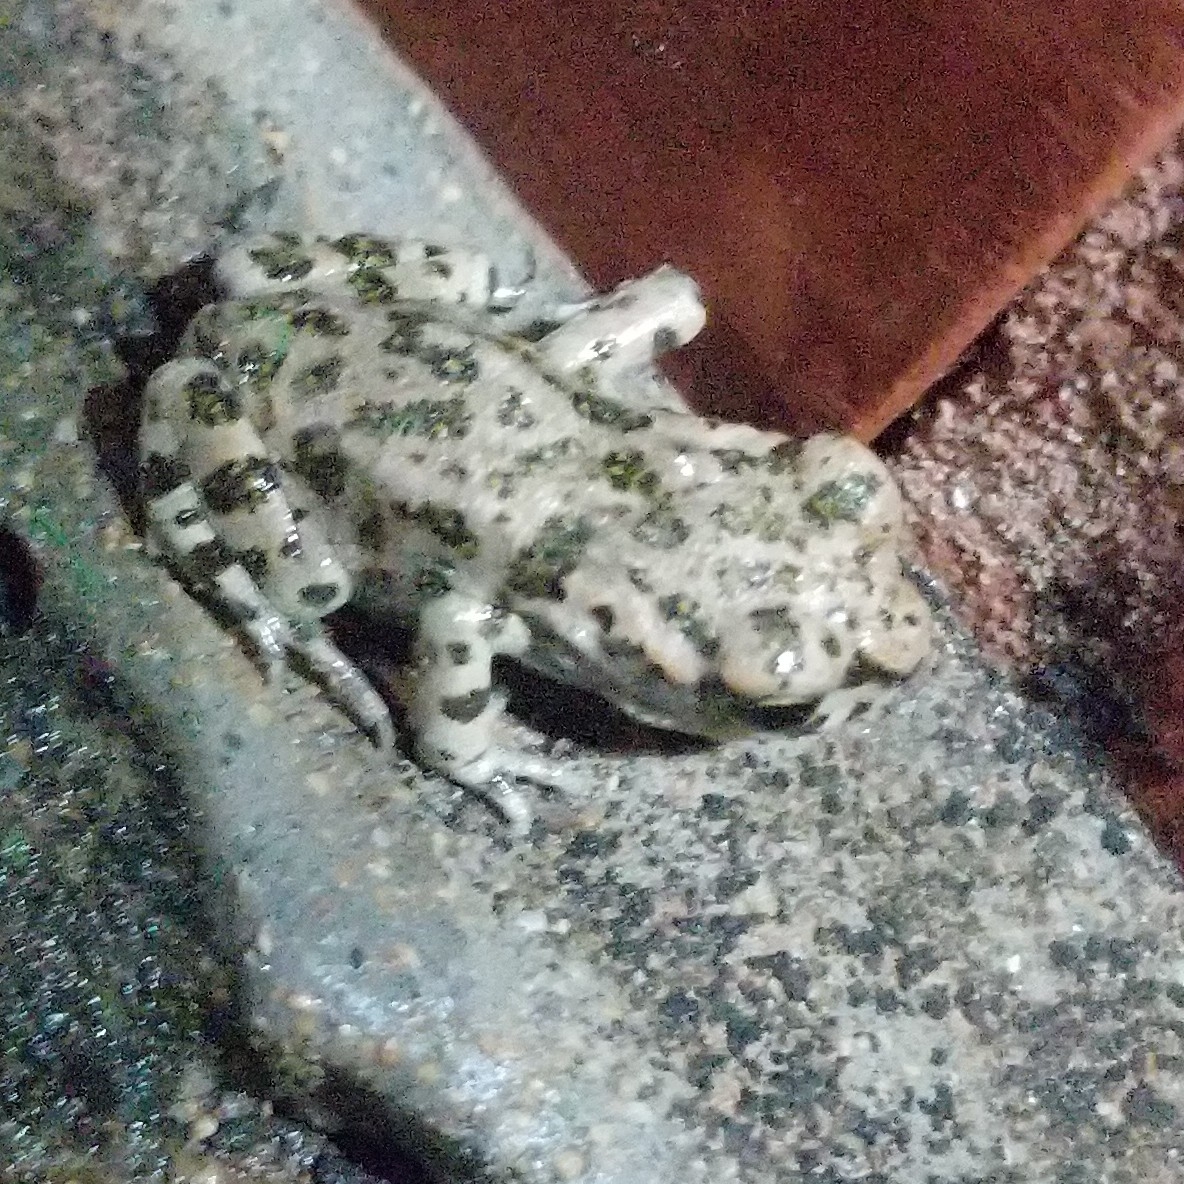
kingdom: Animalia
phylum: Chordata
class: Amphibia
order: Anura
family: Bufonidae
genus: Bufotes
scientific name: Bufotes viridis
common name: European green toad
